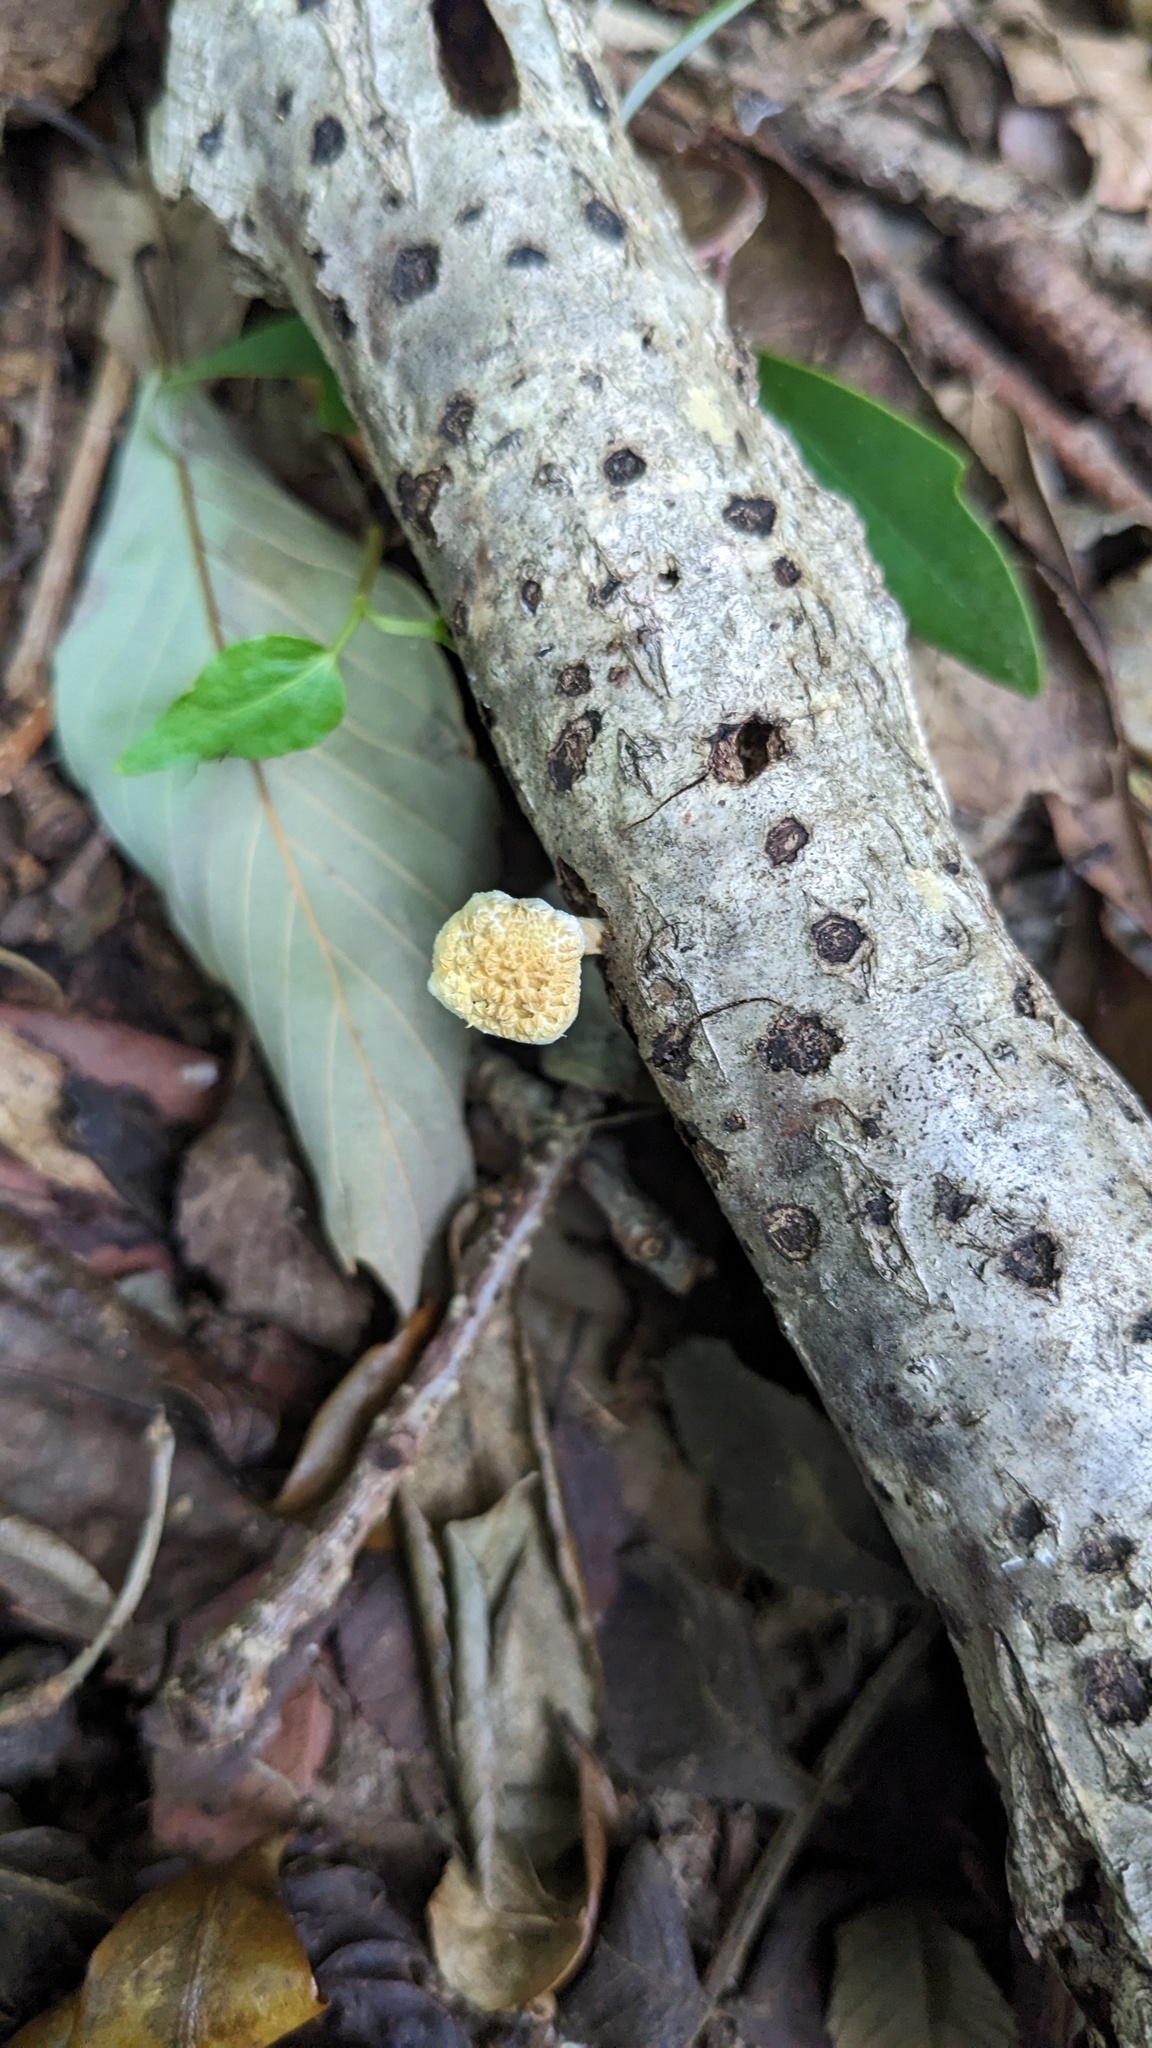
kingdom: Fungi
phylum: Basidiomycota
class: Agaricomycetes
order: Agaricales
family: Physalacriaceae
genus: Cyptotrama
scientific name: Cyptotrama asprata
